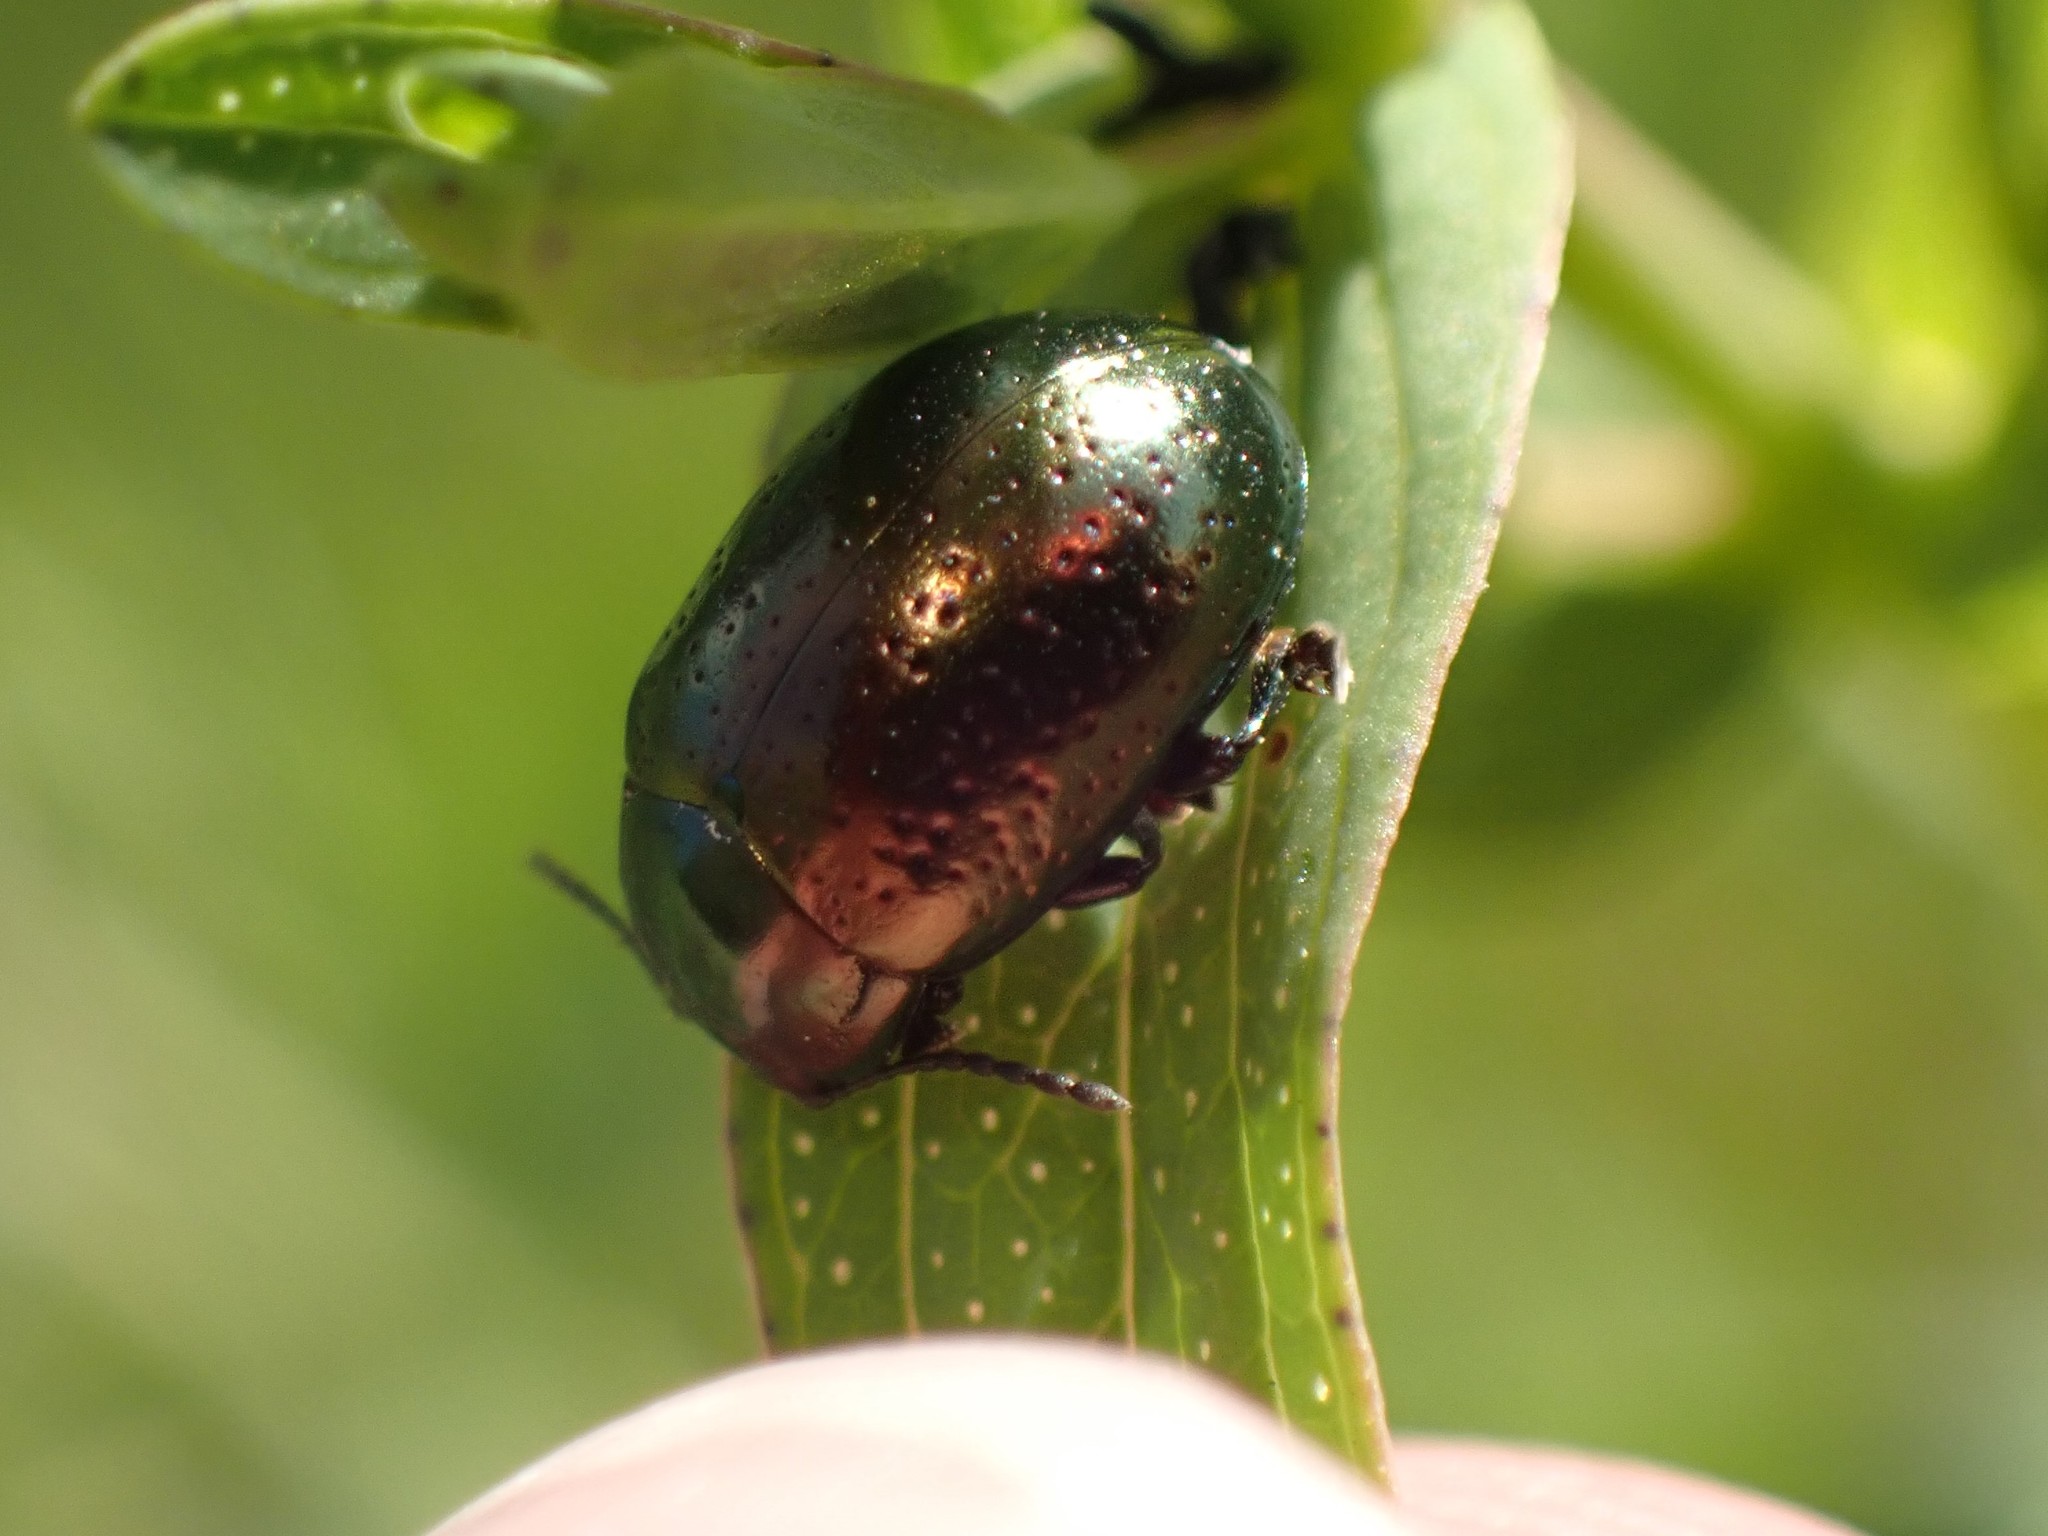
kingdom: Animalia
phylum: Arthropoda
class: Insecta
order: Coleoptera
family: Chrysomelidae
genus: Chrysolina
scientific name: Chrysolina hyperici
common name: St. johnswort beetle
